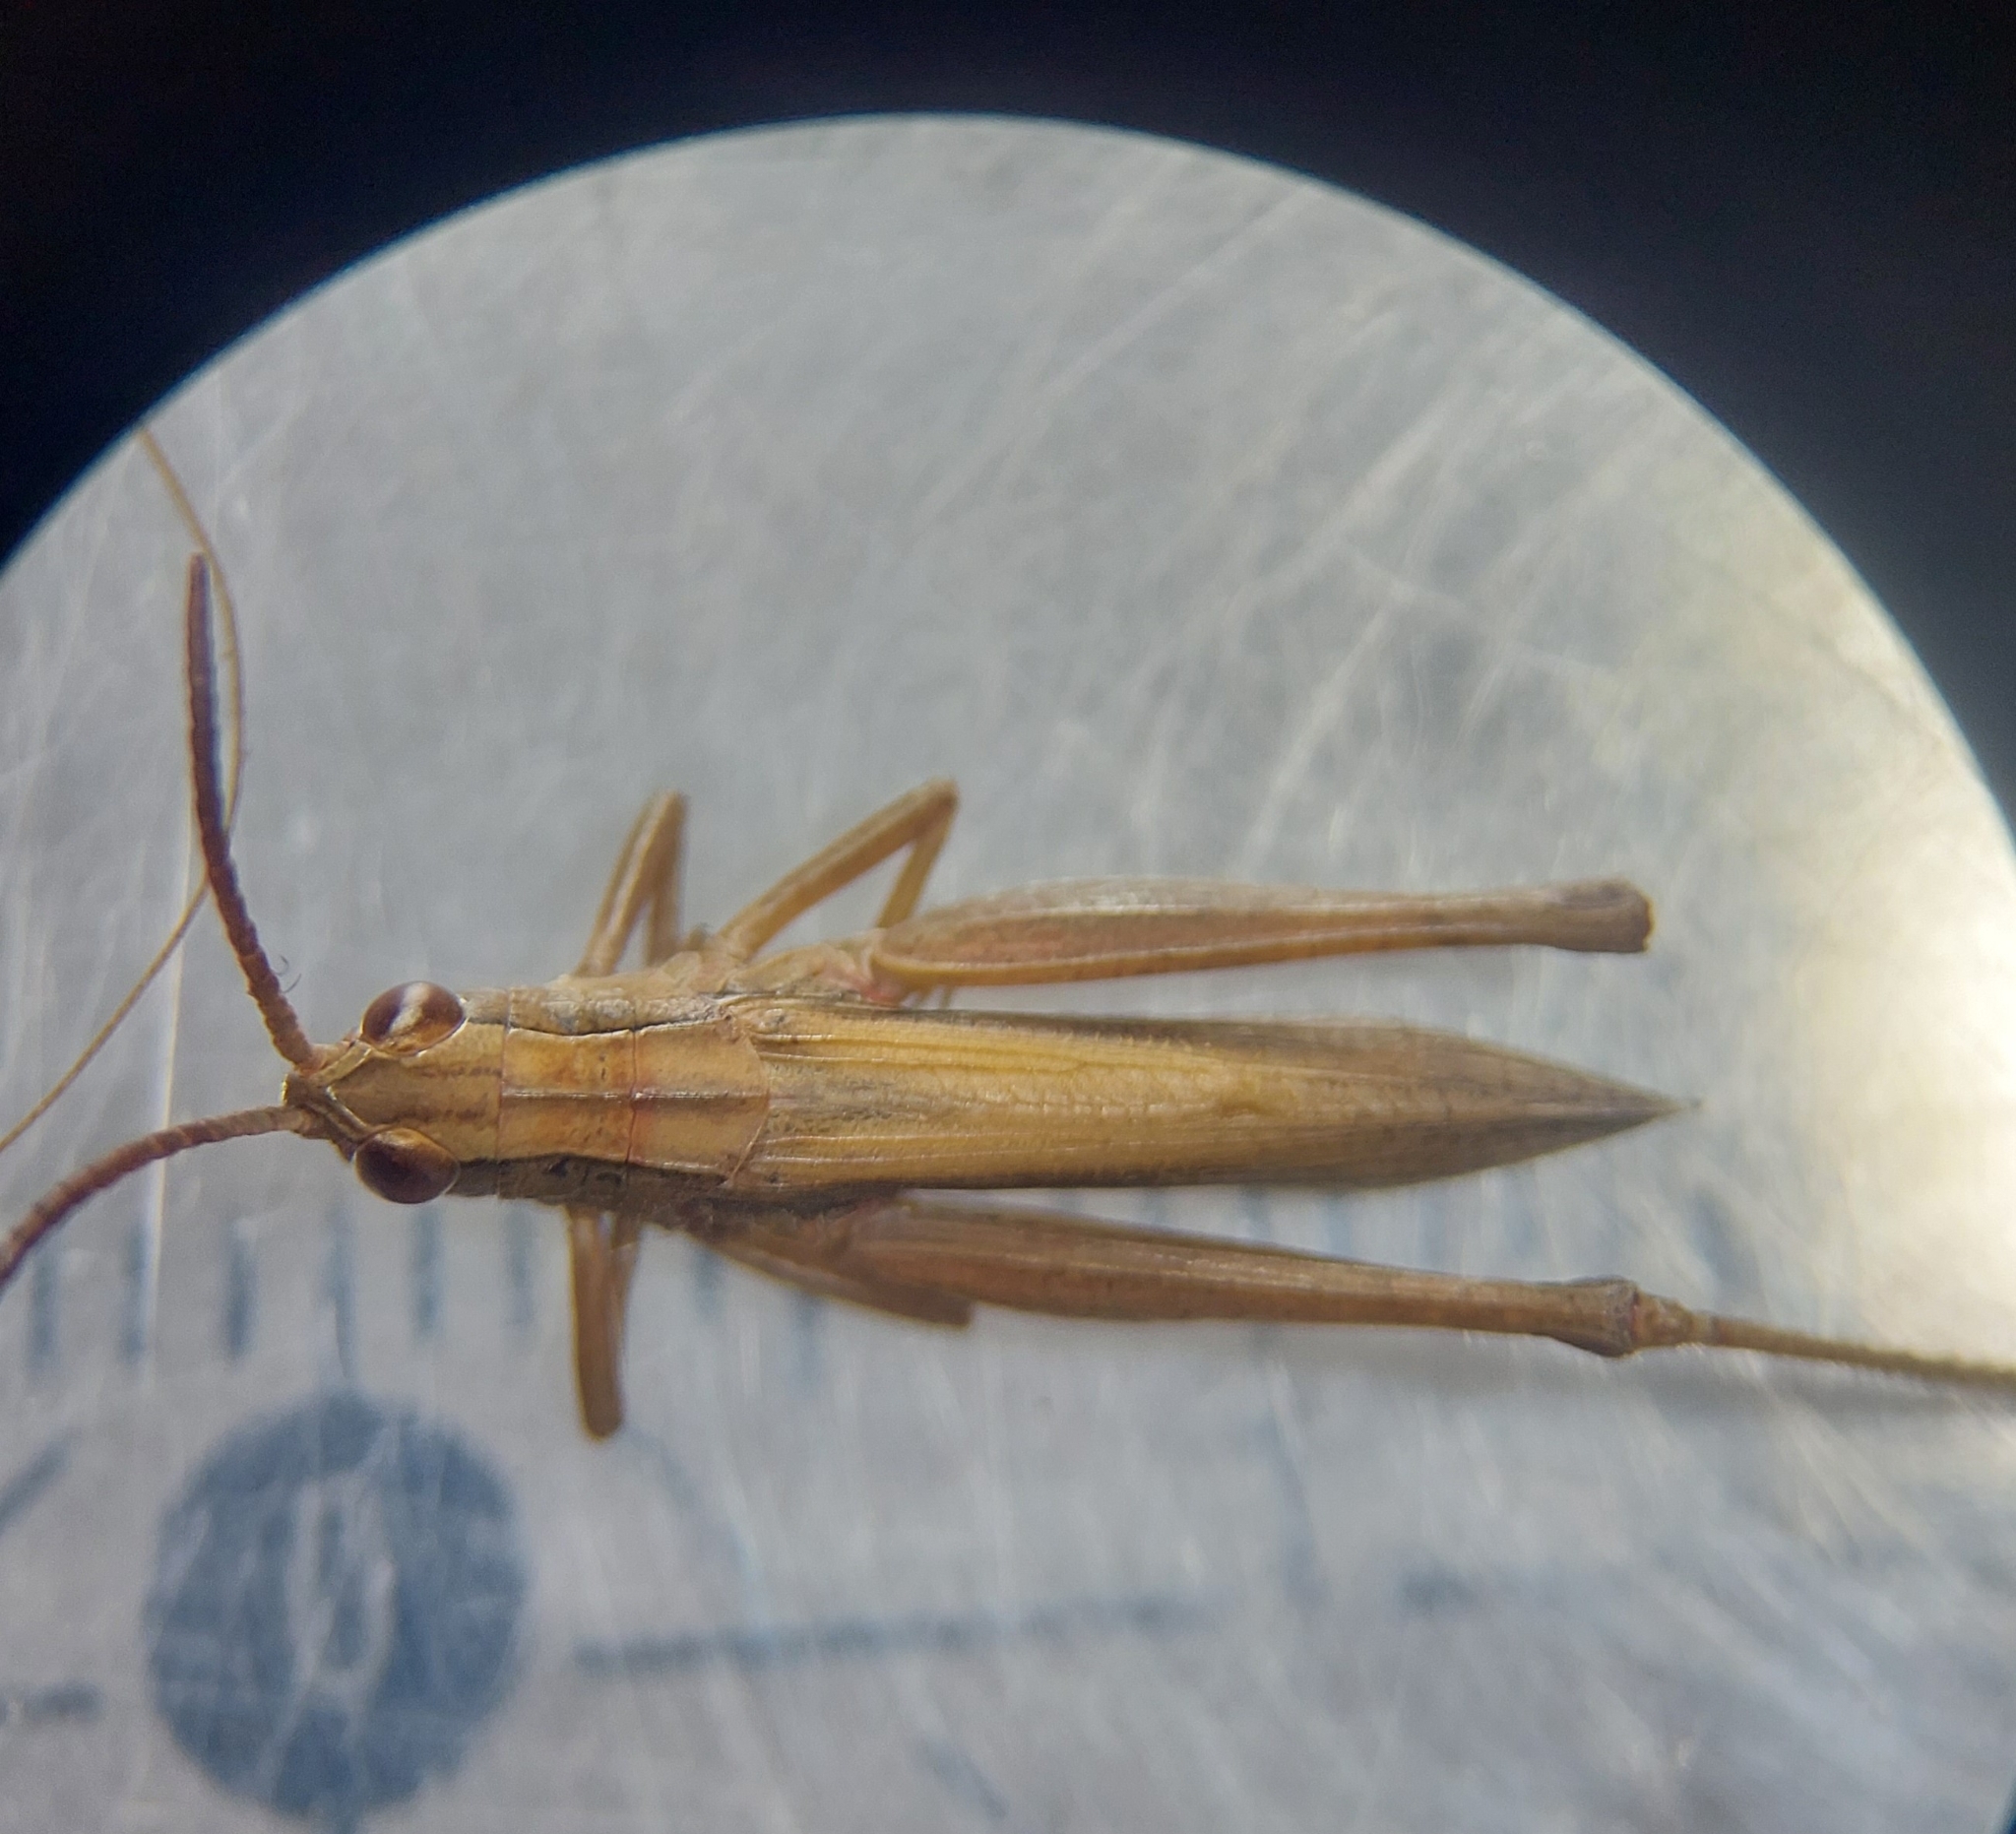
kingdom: Animalia
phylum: Arthropoda
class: Insecta
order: Orthoptera
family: Acrididae
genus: Chorthippus
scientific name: Chorthippus albomarginatus
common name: Lesser marsh grasshopper
